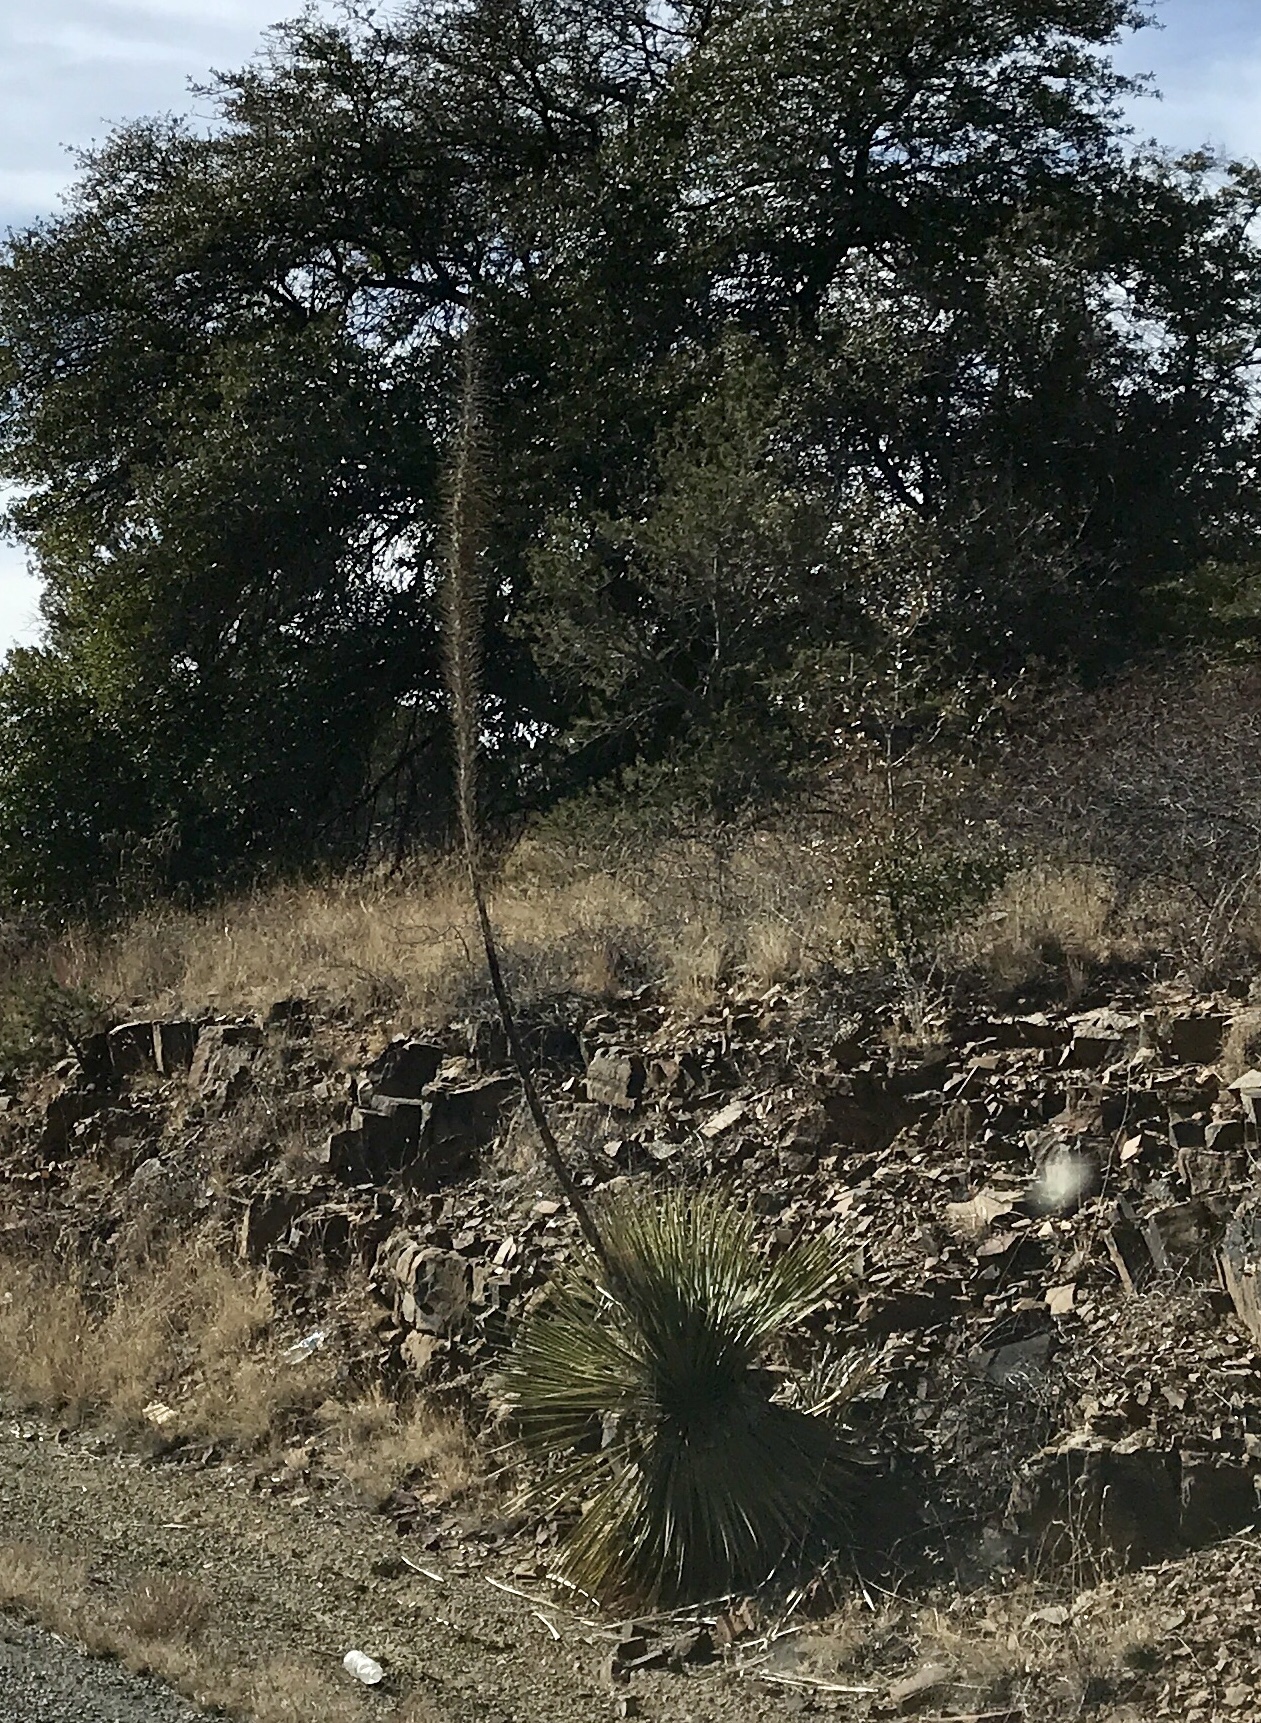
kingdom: Plantae
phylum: Tracheophyta
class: Liliopsida
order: Asparagales
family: Asparagaceae
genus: Dasylirion
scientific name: Dasylirion wheeleri
